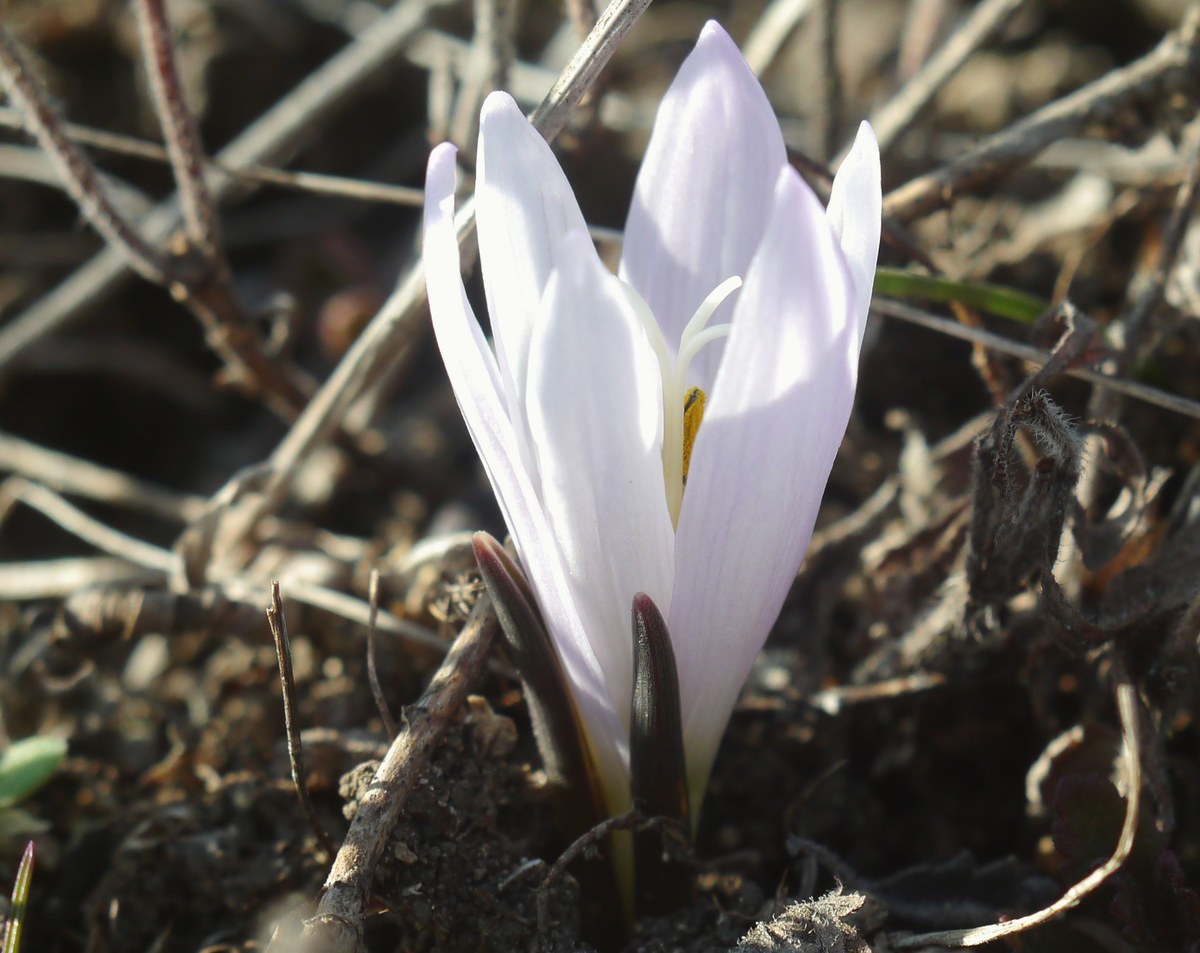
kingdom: Plantae
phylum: Tracheophyta
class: Liliopsida
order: Liliales
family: Colchicaceae
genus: Colchicum
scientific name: Colchicum bulbocodium
